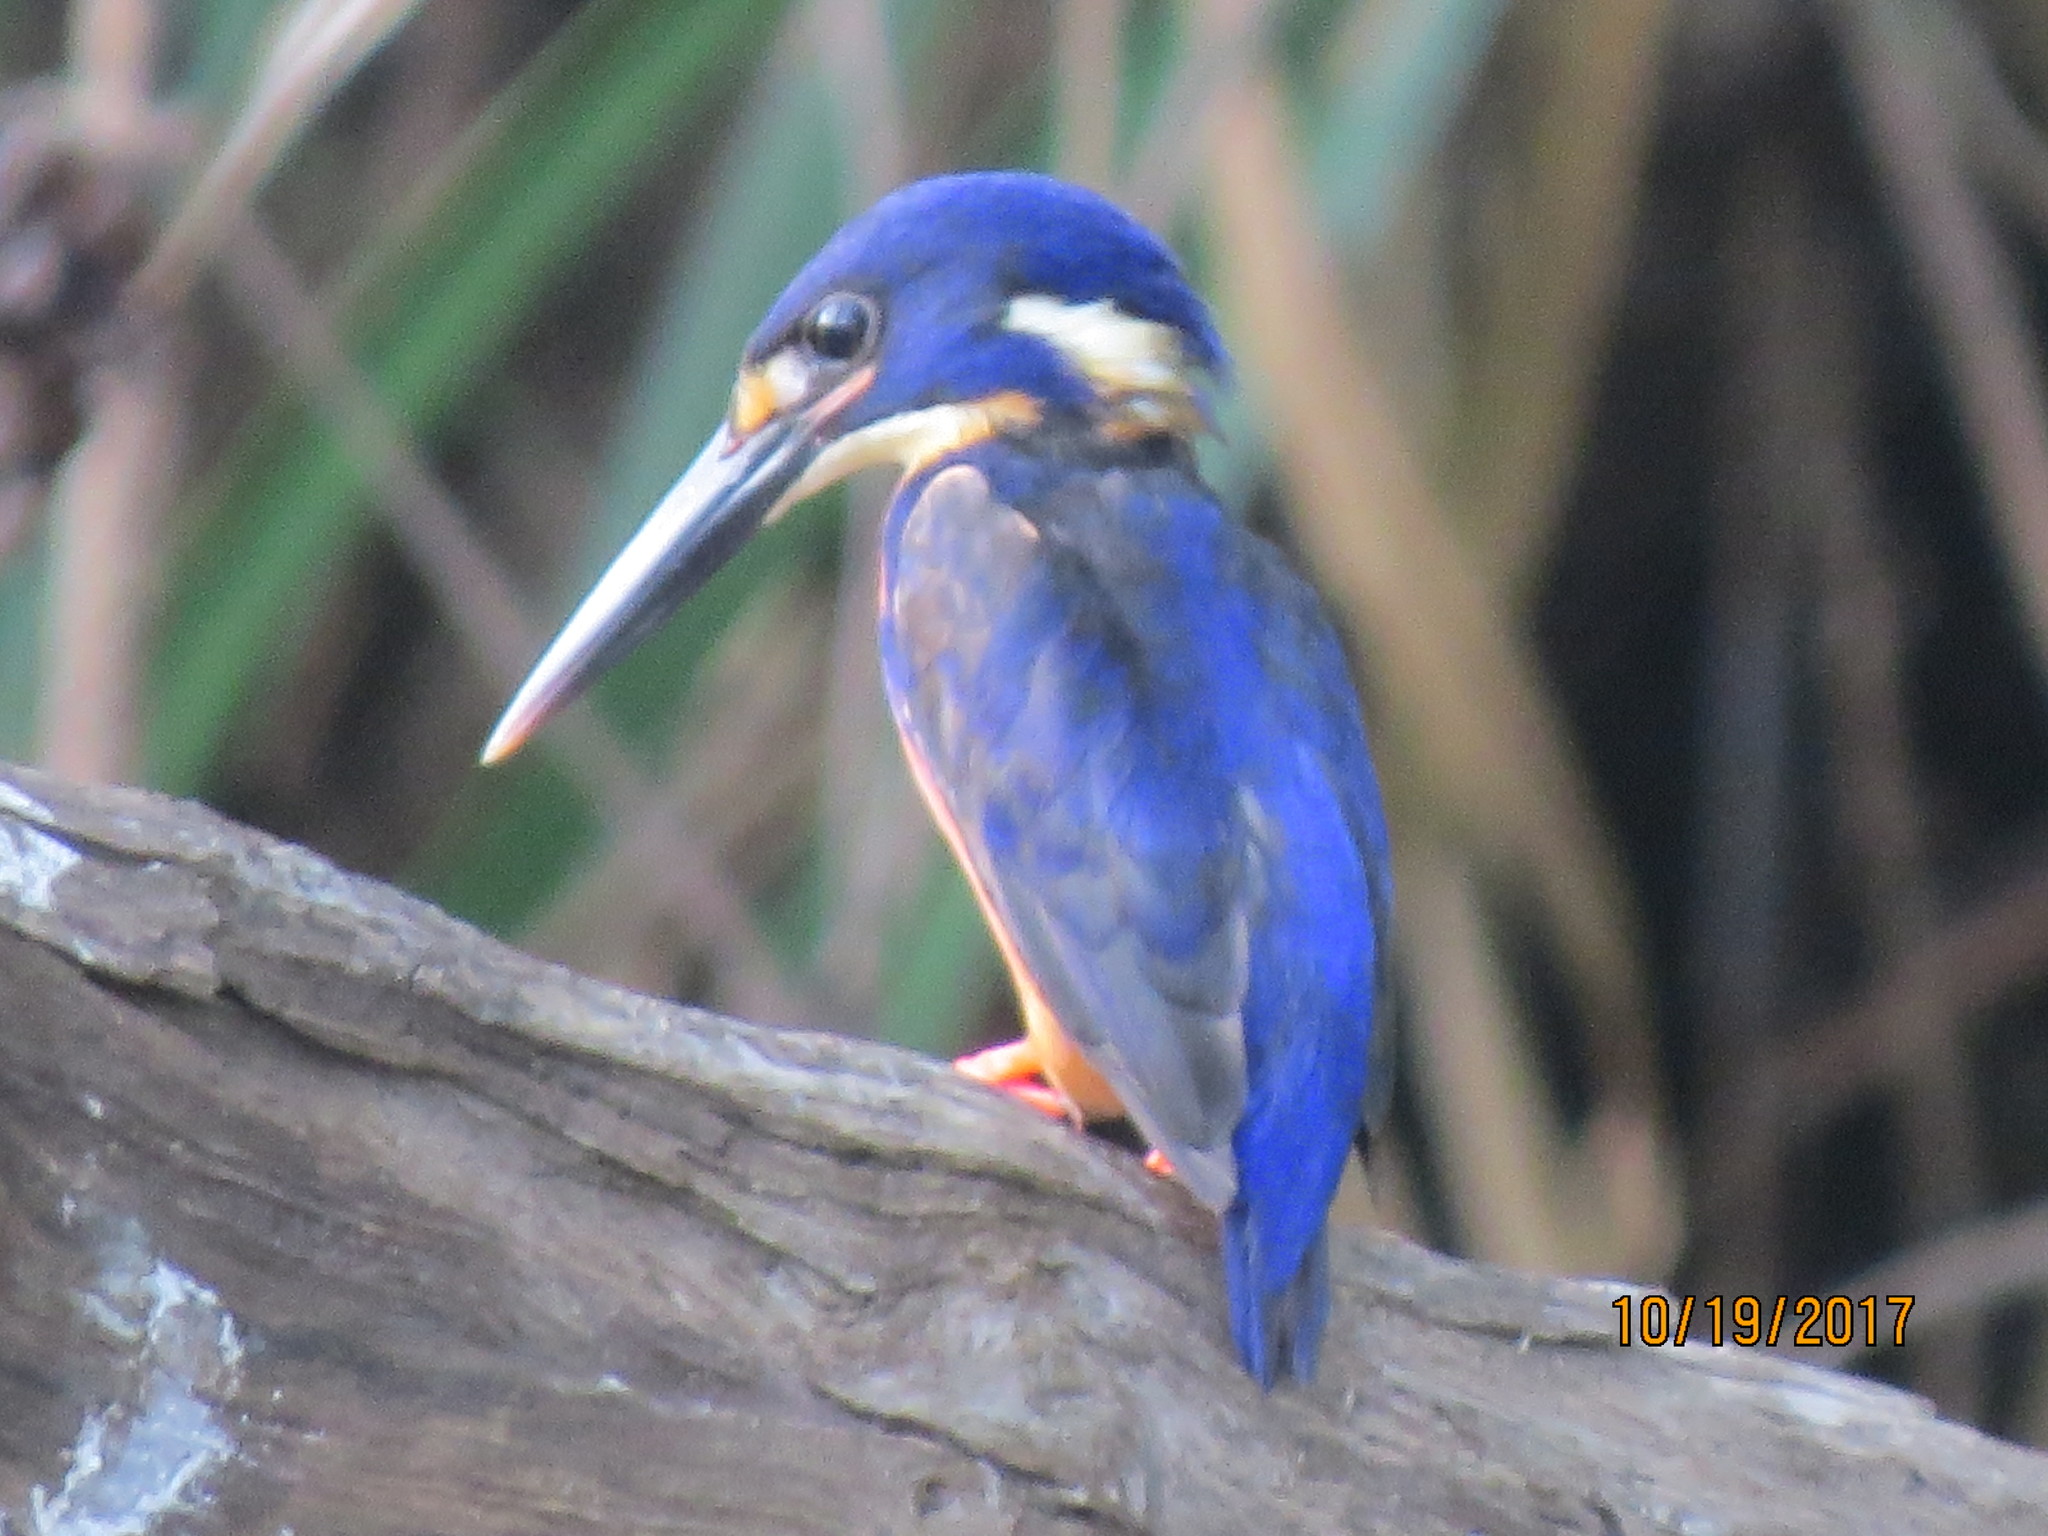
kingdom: Animalia
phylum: Chordata
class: Aves
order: Coraciiformes
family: Alcedinidae
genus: Ceyx
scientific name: Ceyx azureus
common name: Azure kingfisher
